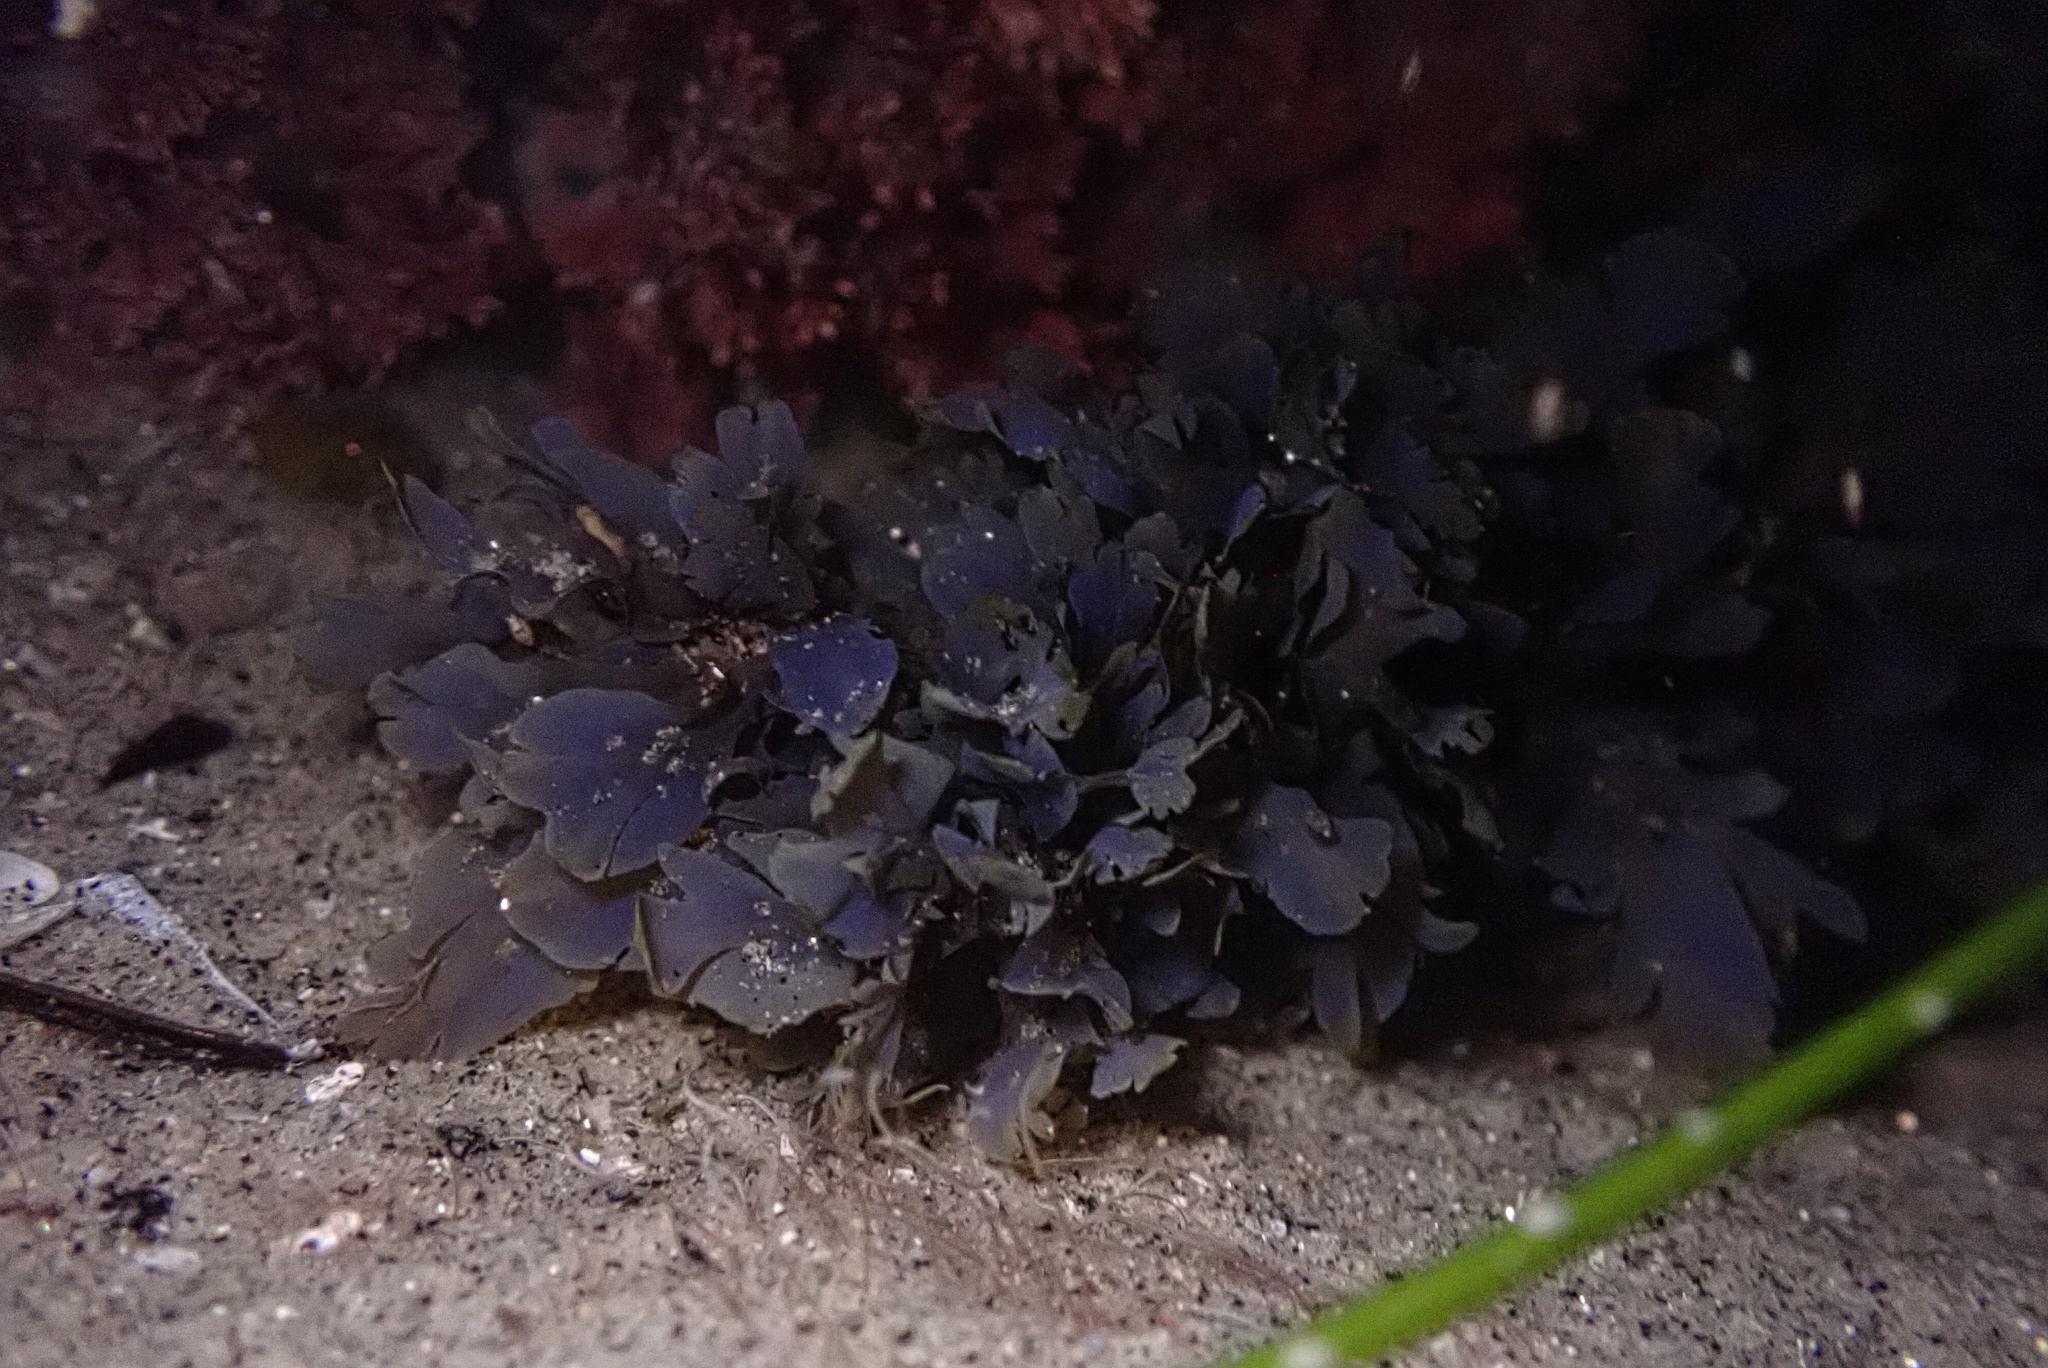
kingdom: Chromista
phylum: Ochrophyta
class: Phaeophyceae
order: Dictyotales
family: Dictyotaceae
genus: Dictyopteris
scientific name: Dictyopteris undulata
